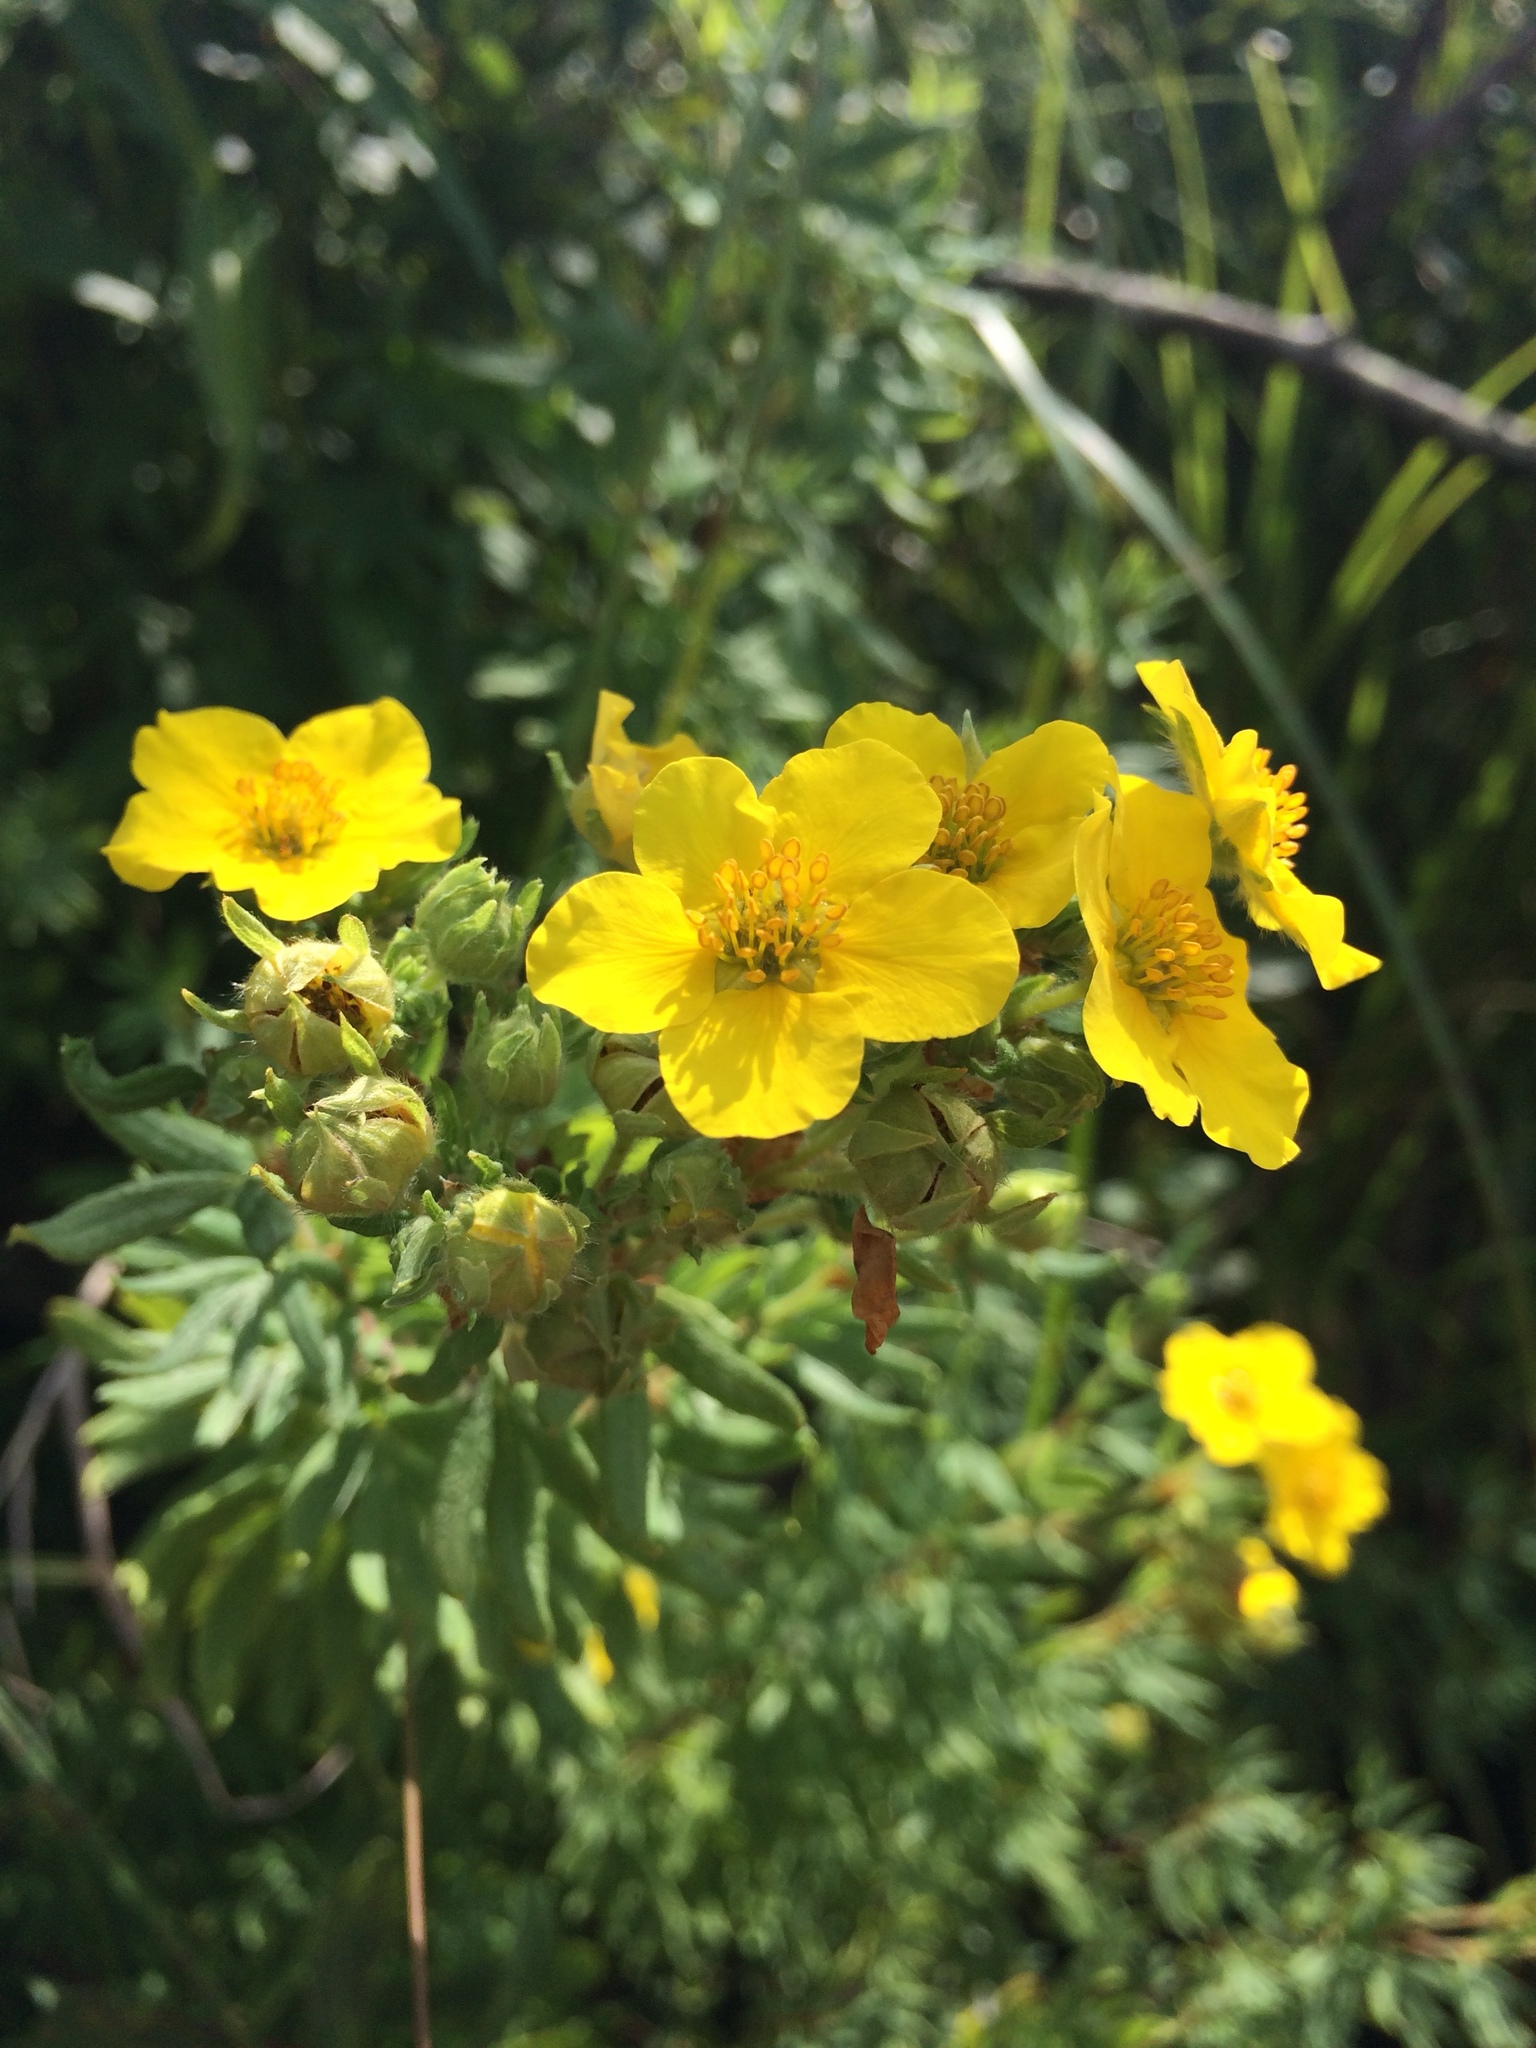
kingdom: Plantae
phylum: Tracheophyta
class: Magnoliopsida
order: Rosales
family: Rosaceae
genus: Dasiphora
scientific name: Dasiphora fruticosa
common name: Shrubby cinquefoil
